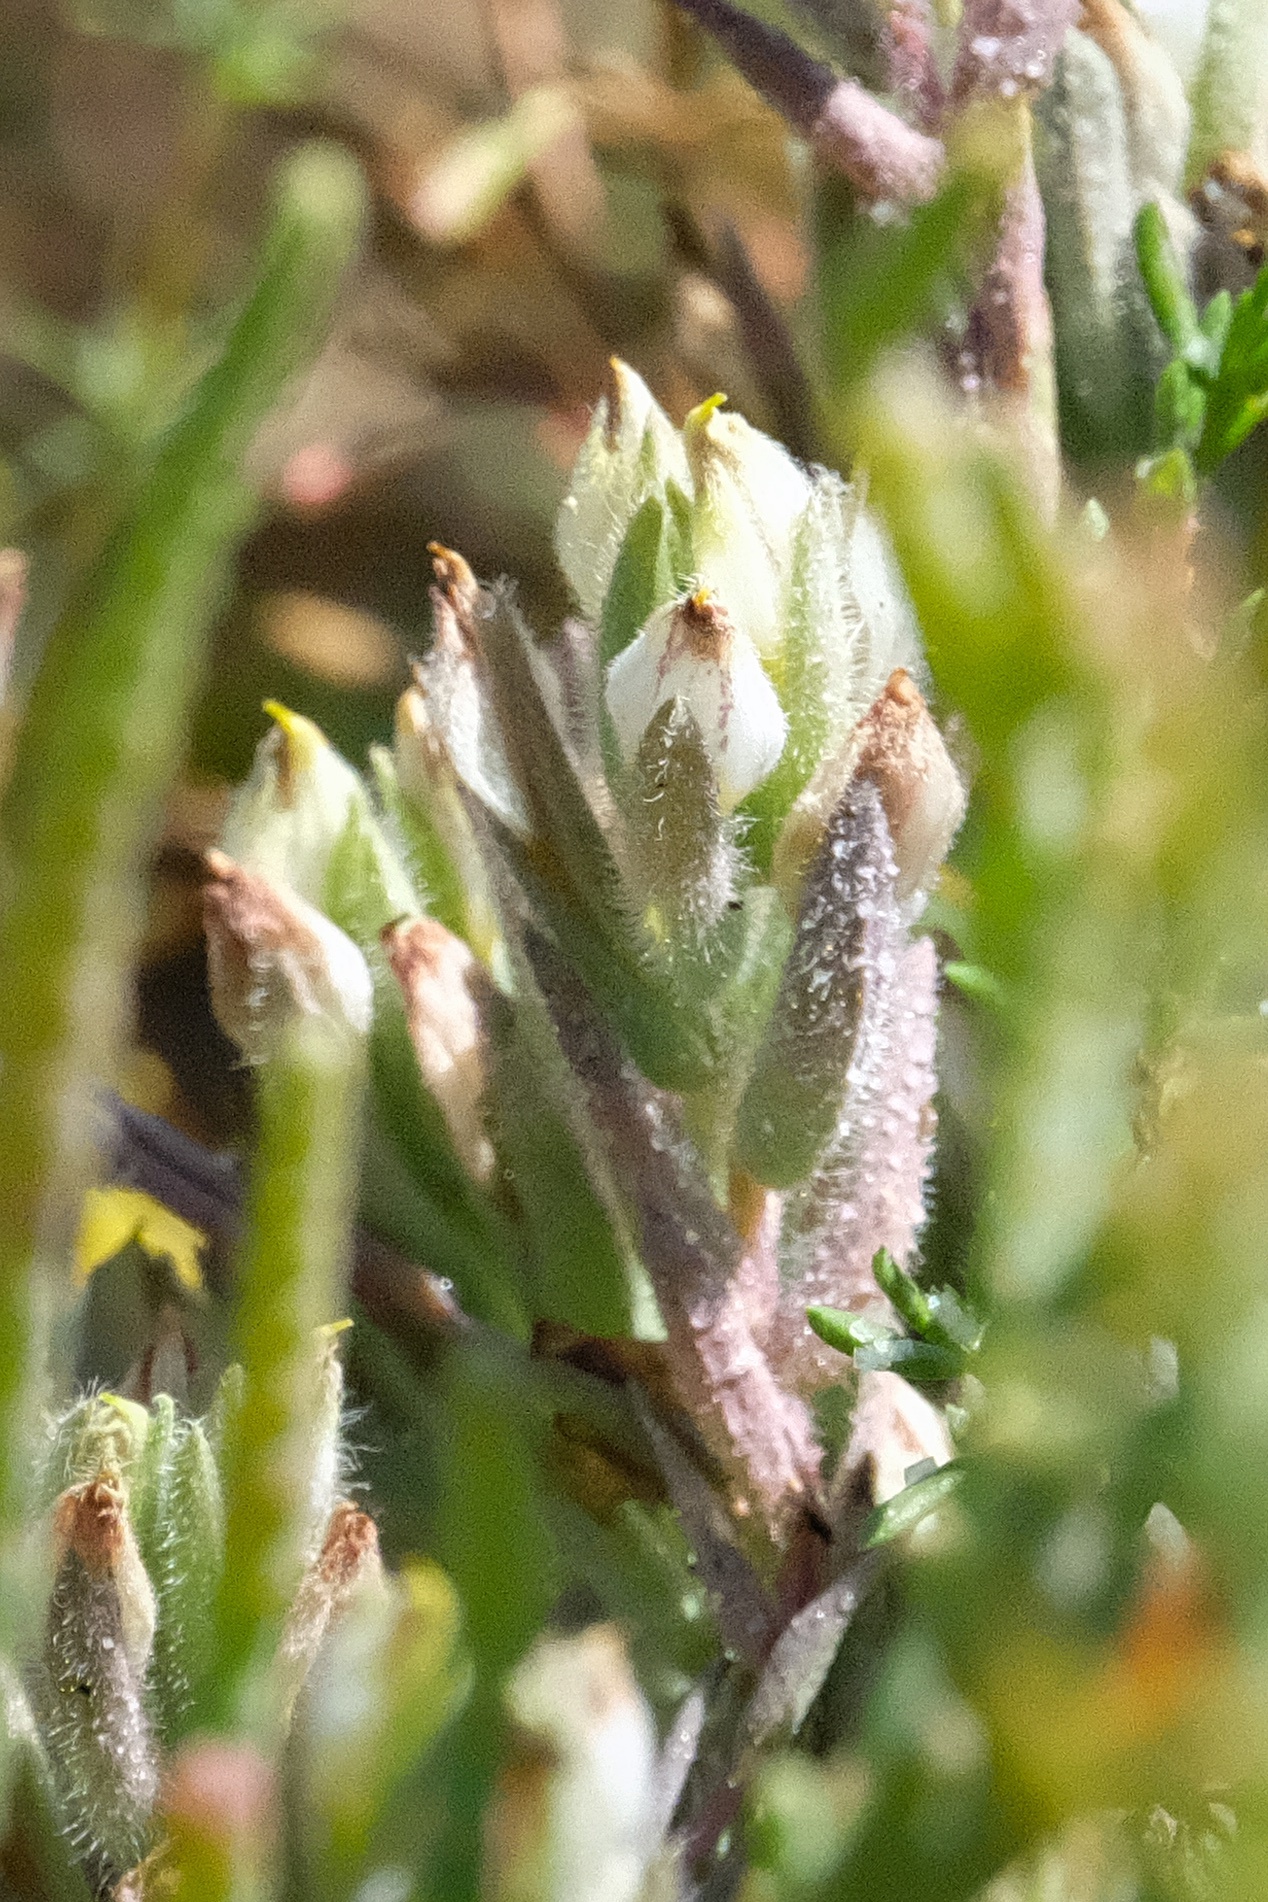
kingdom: Plantae
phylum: Tracheophyta
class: Magnoliopsida
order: Lamiales
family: Orobanchaceae
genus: Chloropyron
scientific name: Chloropyron maritimum
